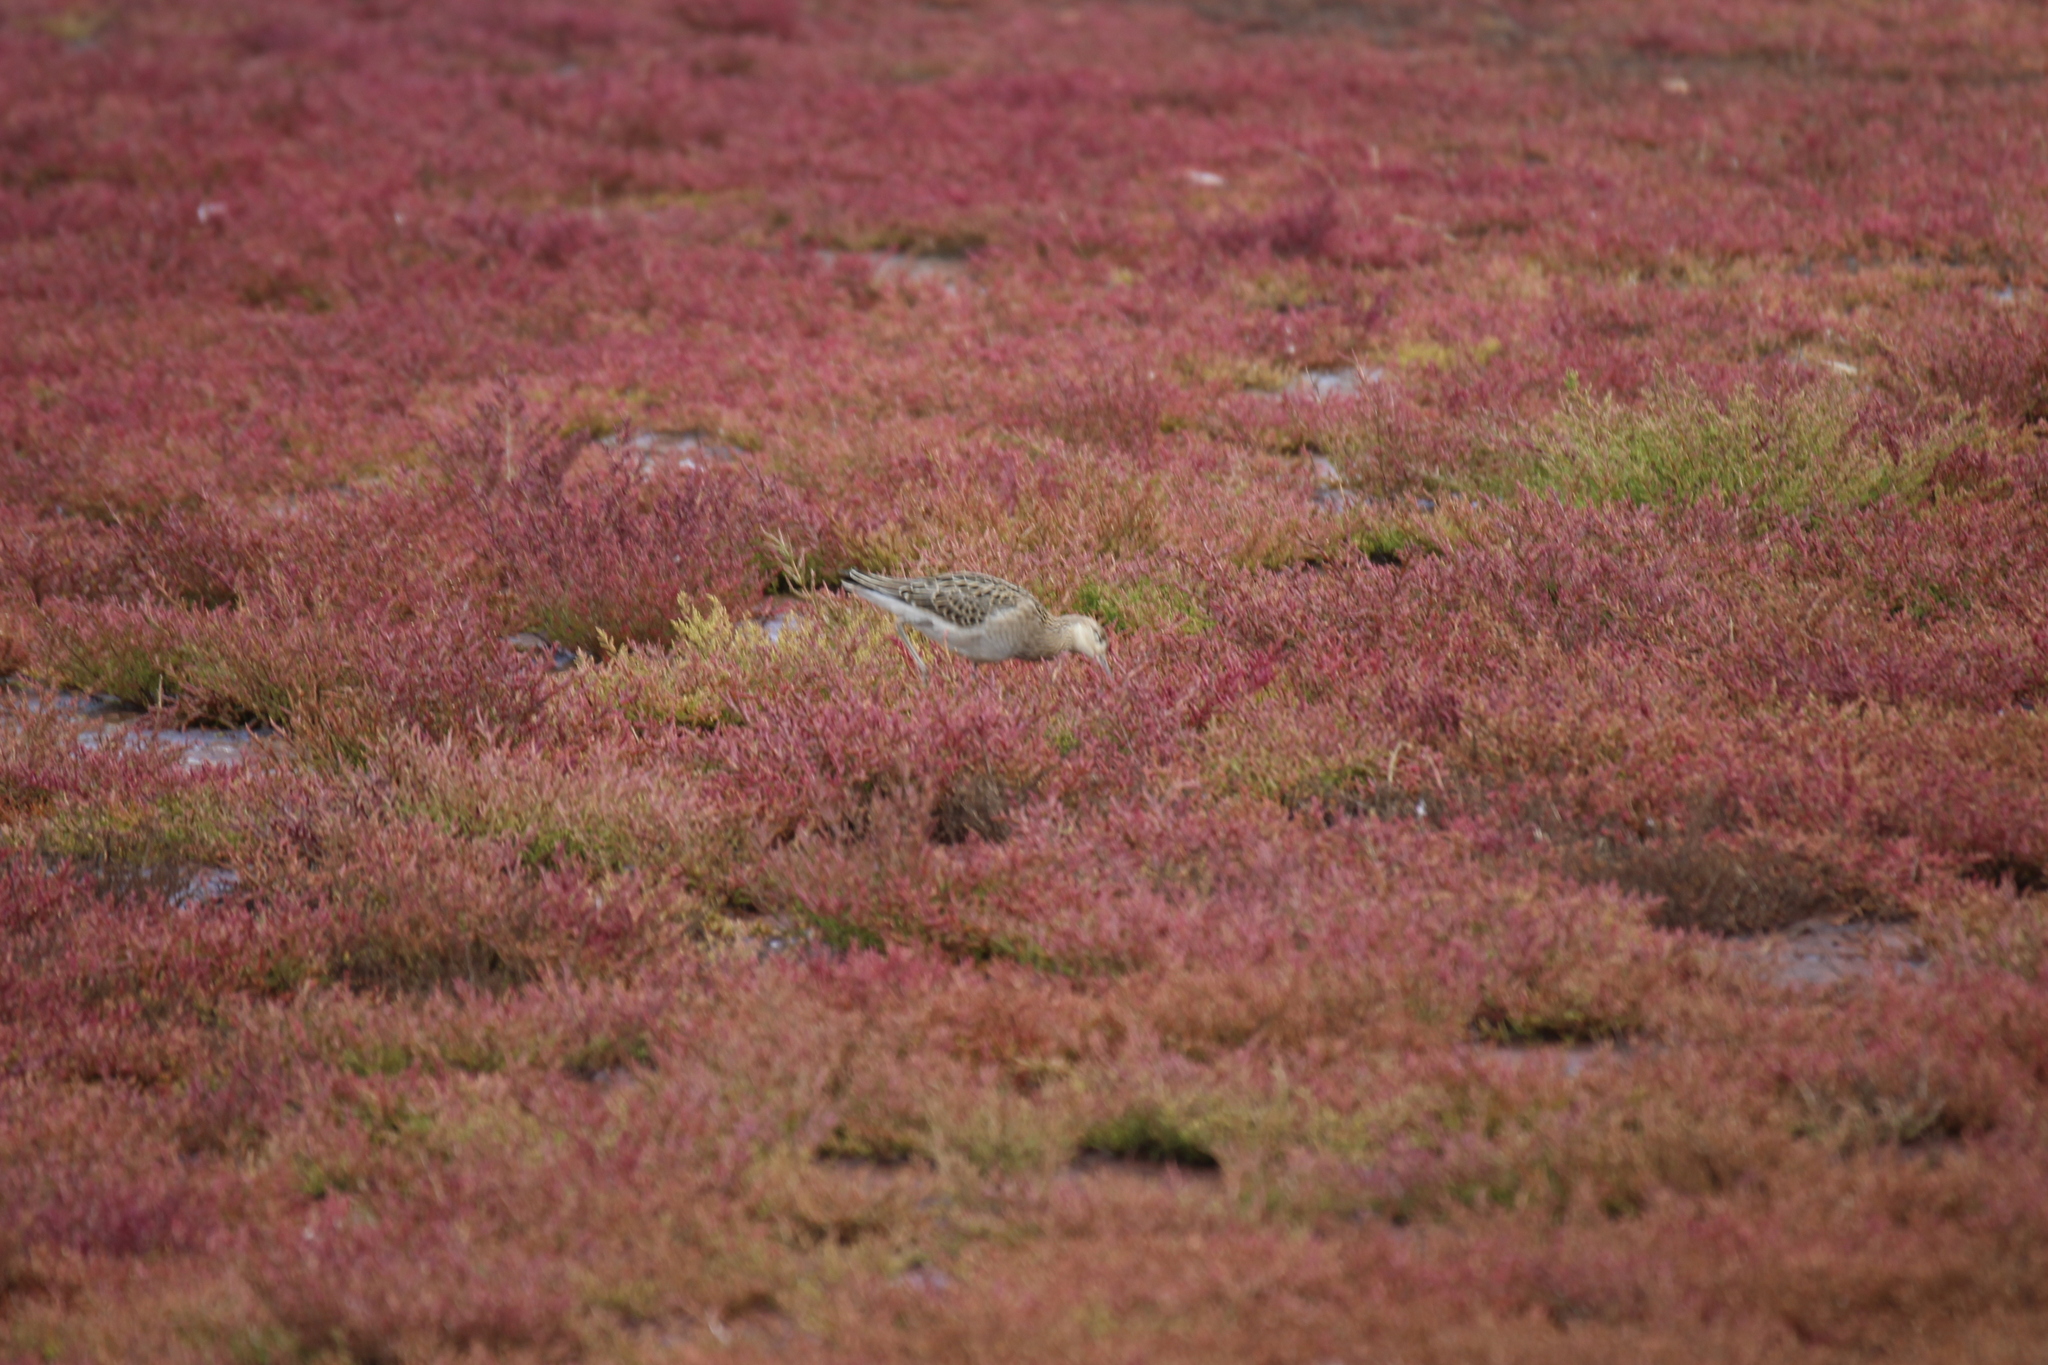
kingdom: Animalia
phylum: Chordata
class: Aves
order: Charadriiformes
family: Scolopacidae
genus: Calidris
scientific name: Calidris pugnax
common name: Ruff
